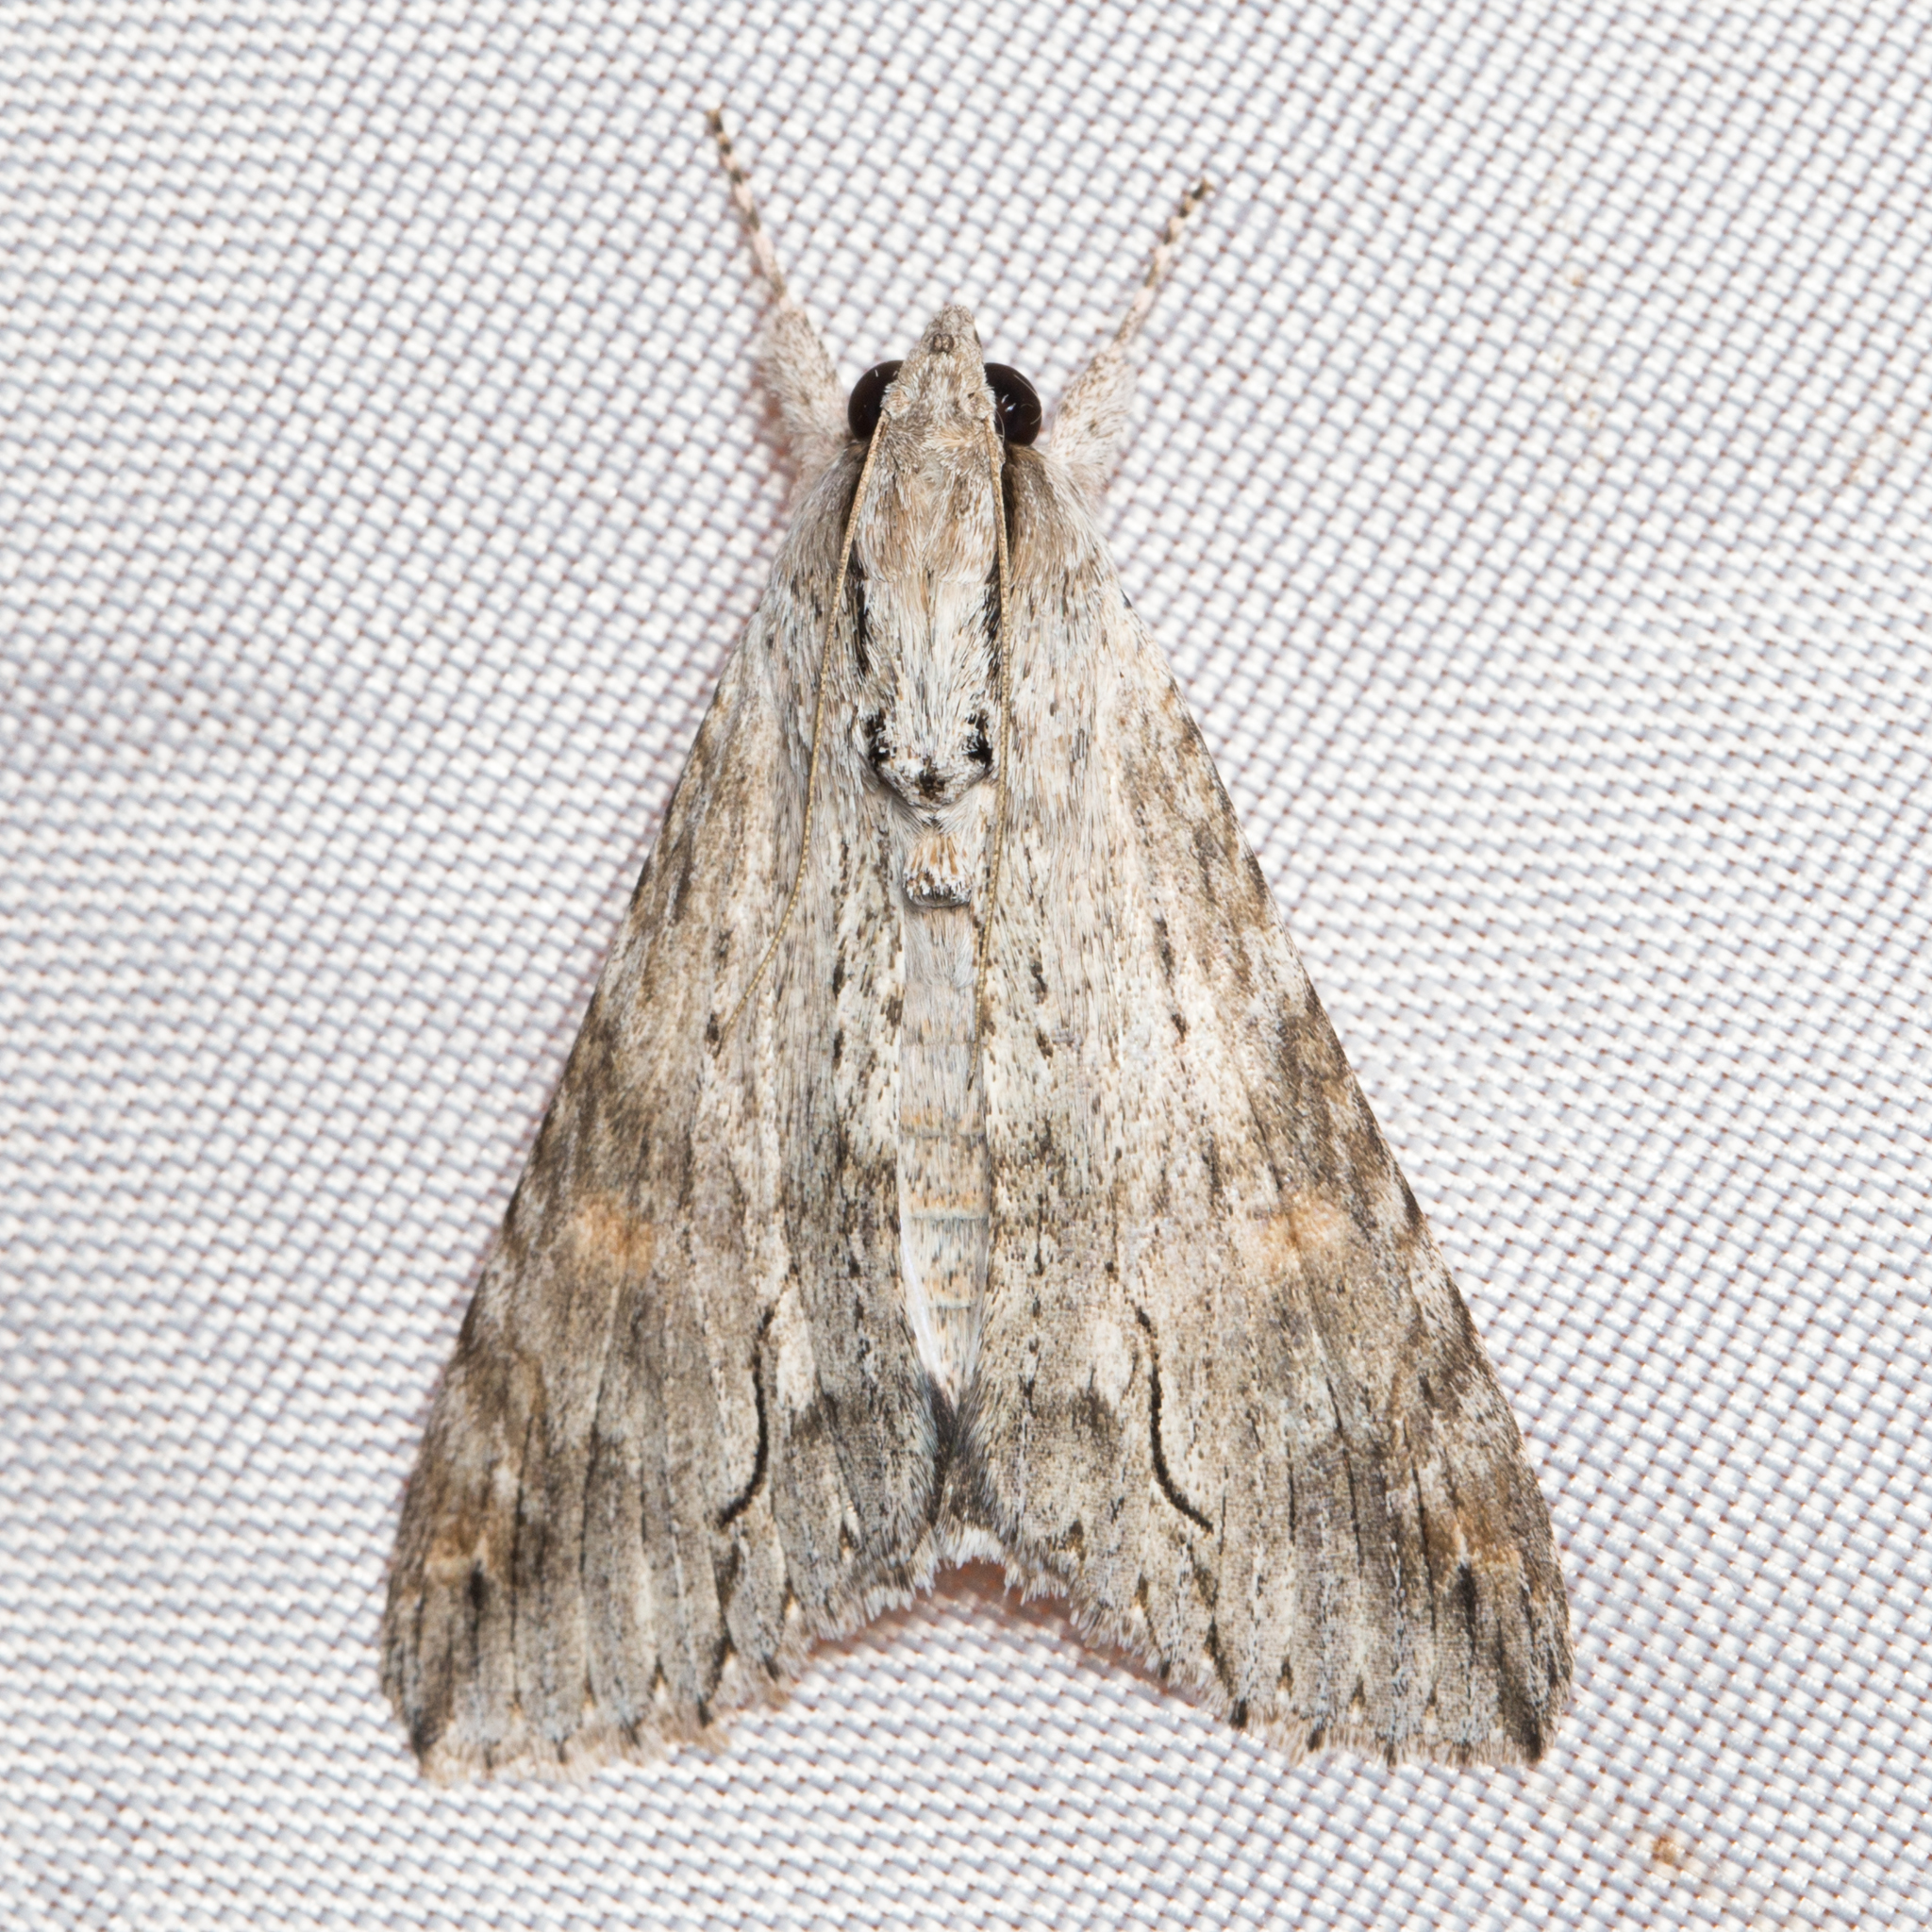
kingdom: Animalia
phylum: Arthropoda
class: Insecta
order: Lepidoptera
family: Erebidae
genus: Melipotis
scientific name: Melipotis acontioides
